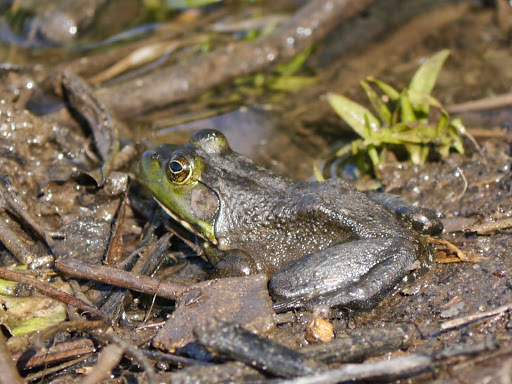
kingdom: Animalia
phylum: Chordata
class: Amphibia
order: Anura
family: Ranidae
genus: Lithobates
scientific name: Lithobates catesbeianus
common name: American bullfrog
